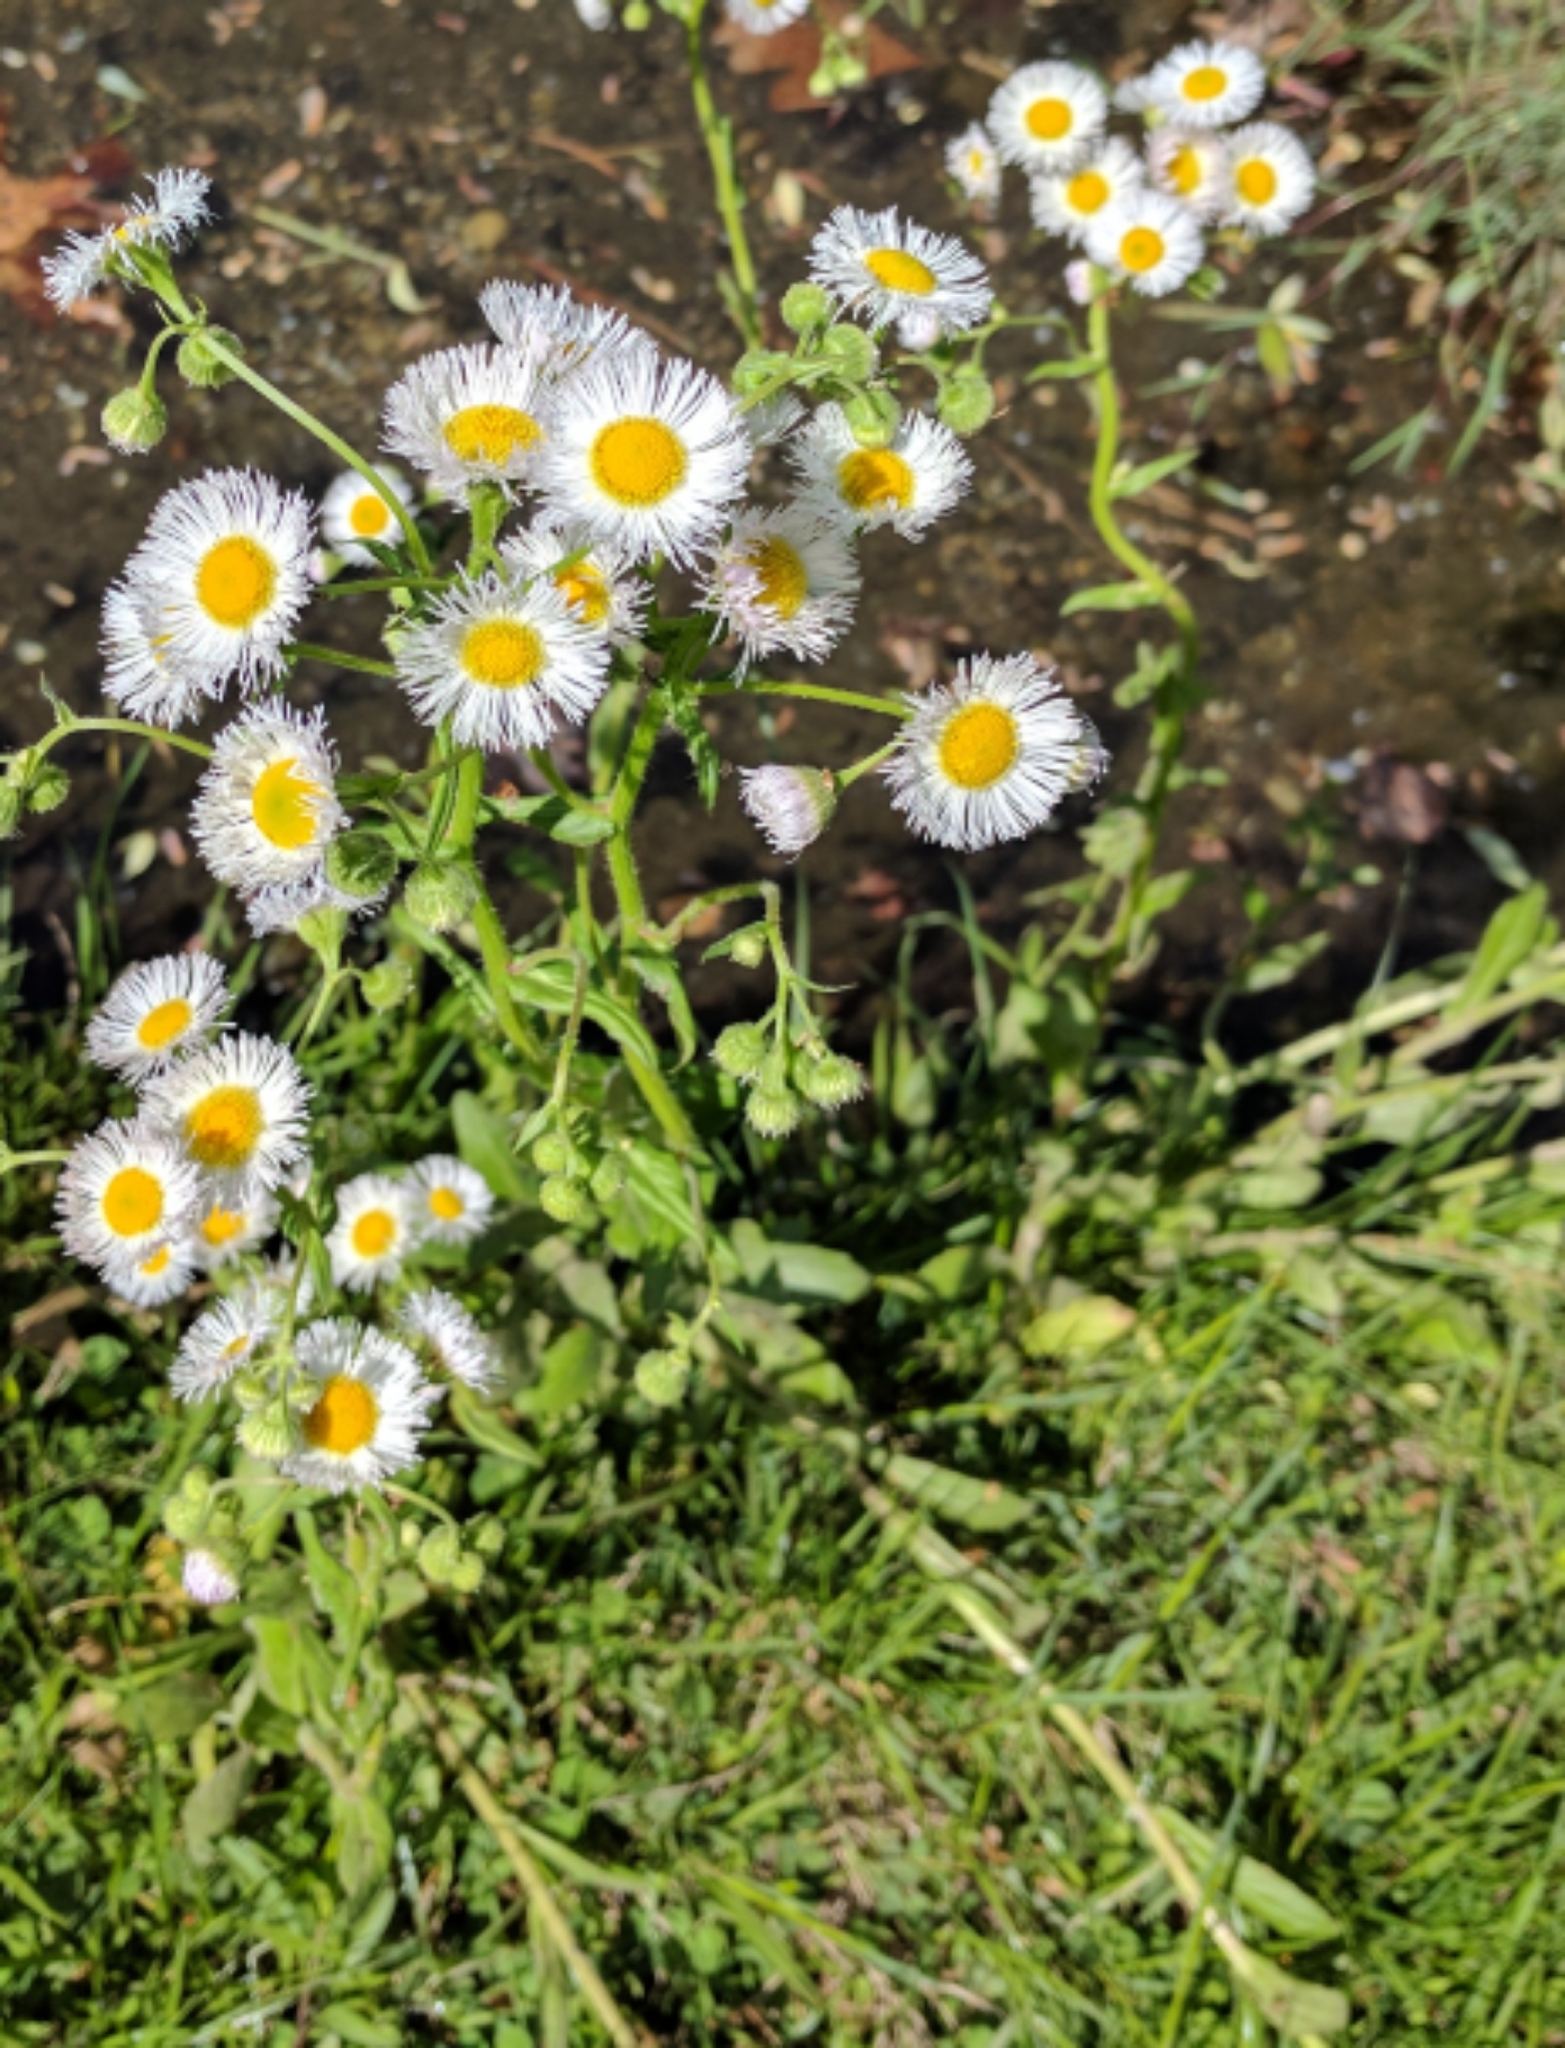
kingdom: Plantae
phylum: Tracheophyta
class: Magnoliopsida
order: Asterales
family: Asteraceae
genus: Erigeron
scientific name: Erigeron philadelphicus
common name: Robin's-plantain
